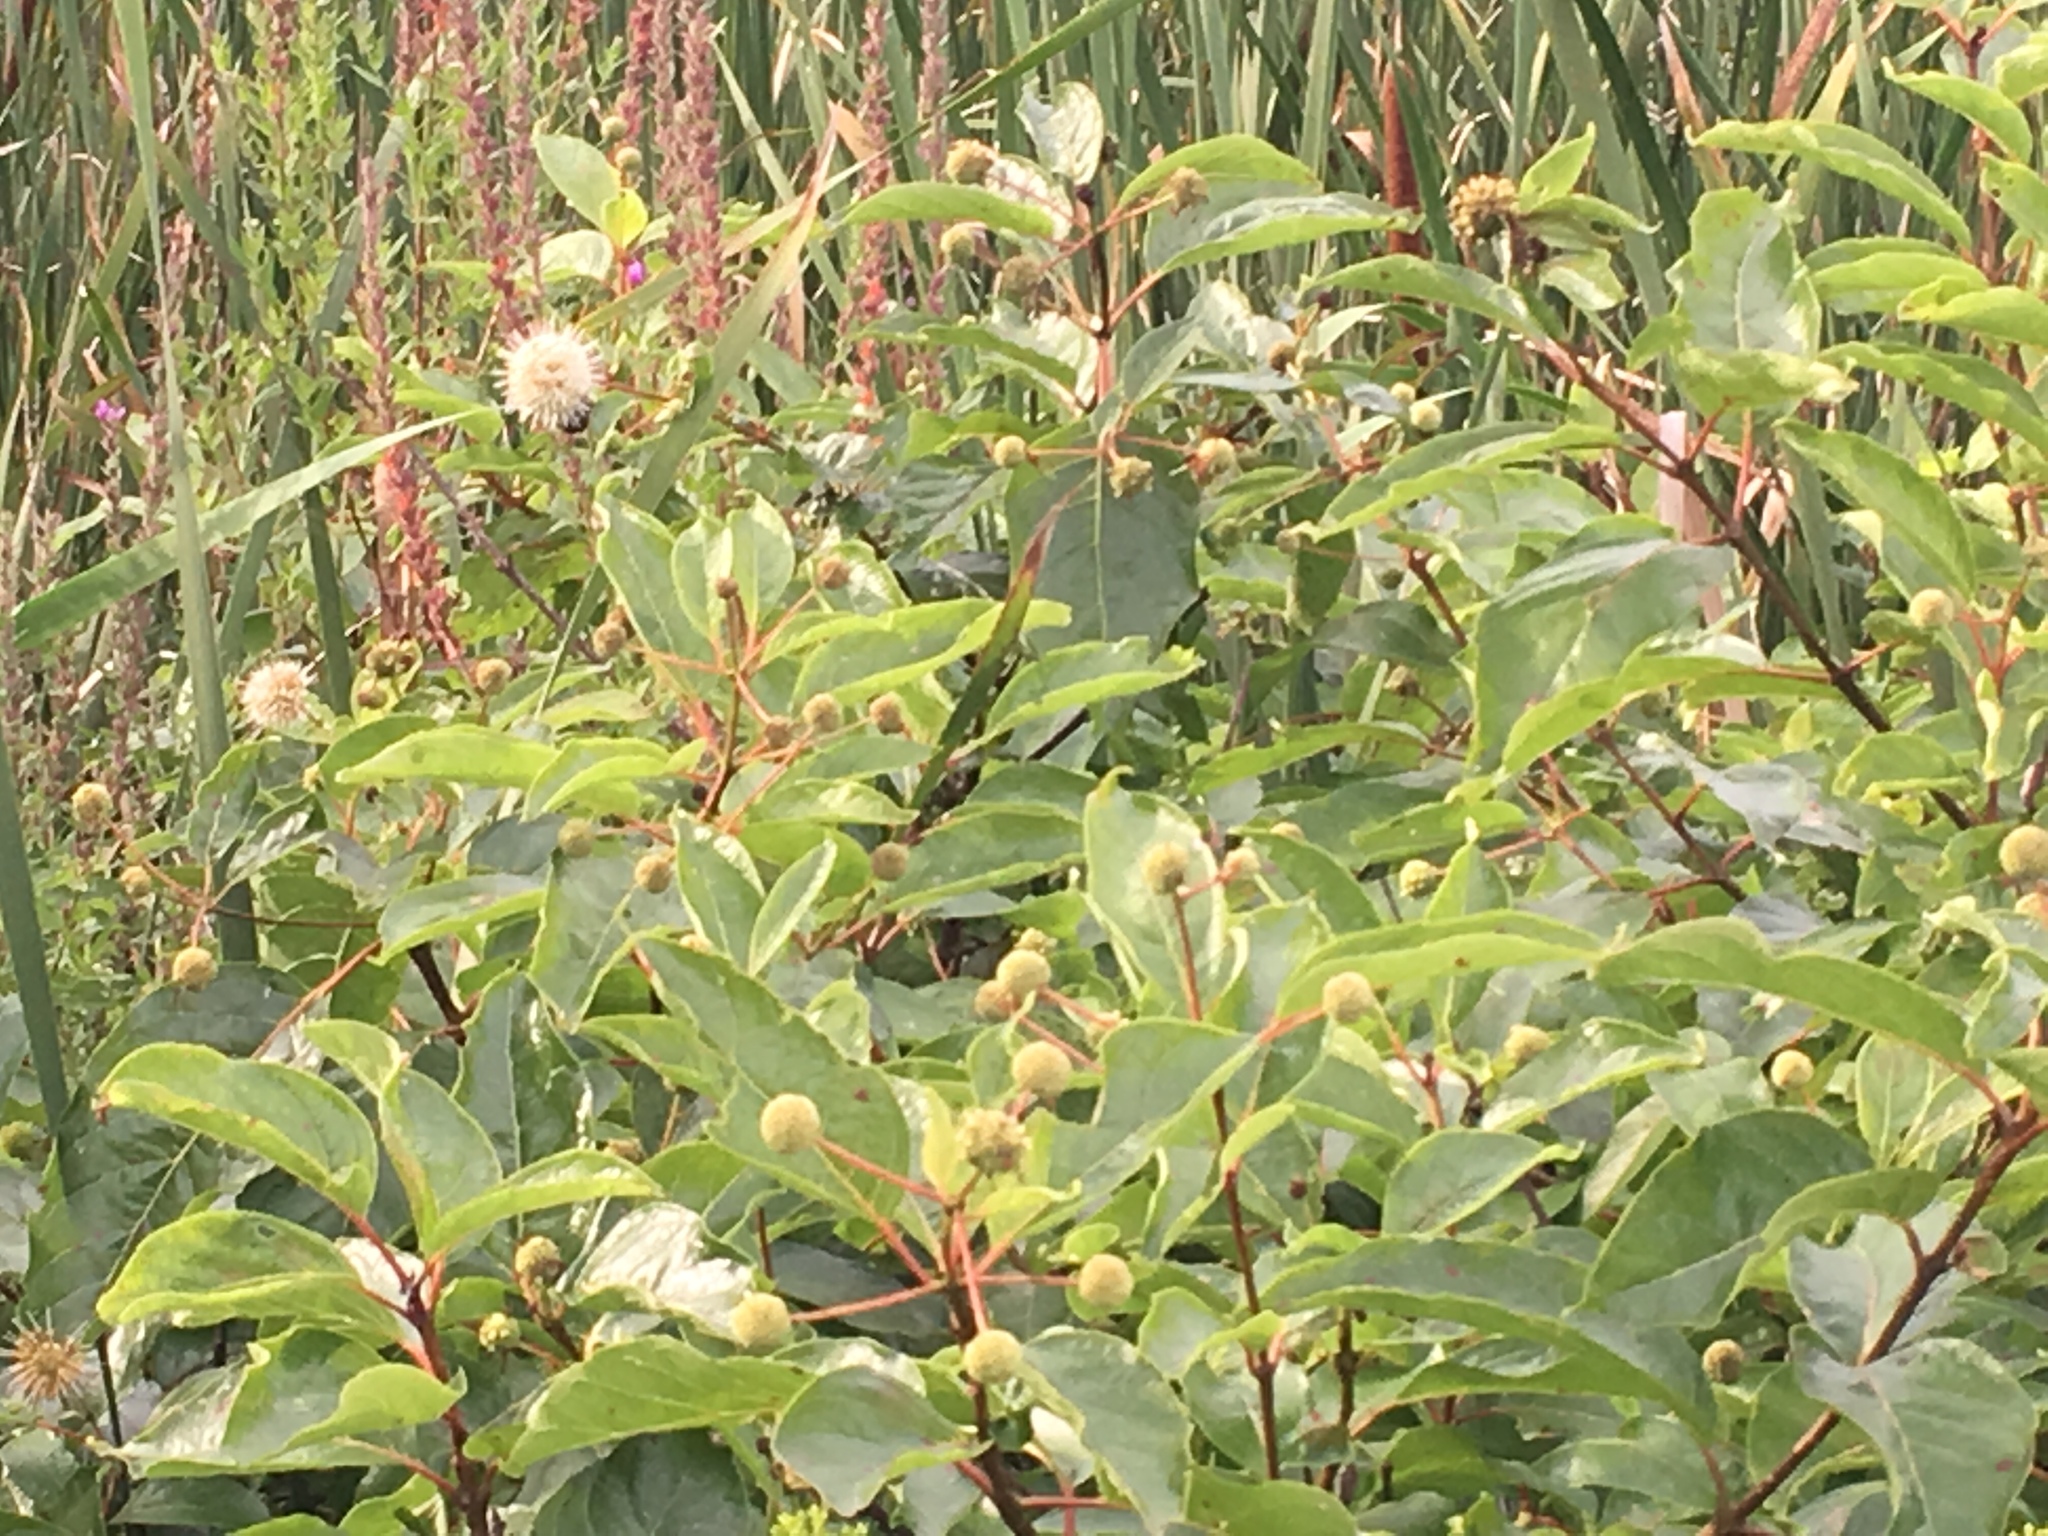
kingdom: Plantae
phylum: Tracheophyta
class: Magnoliopsida
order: Gentianales
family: Rubiaceae
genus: Cephalanthus
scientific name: Cephalanthus occidentalis
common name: Button-willow
